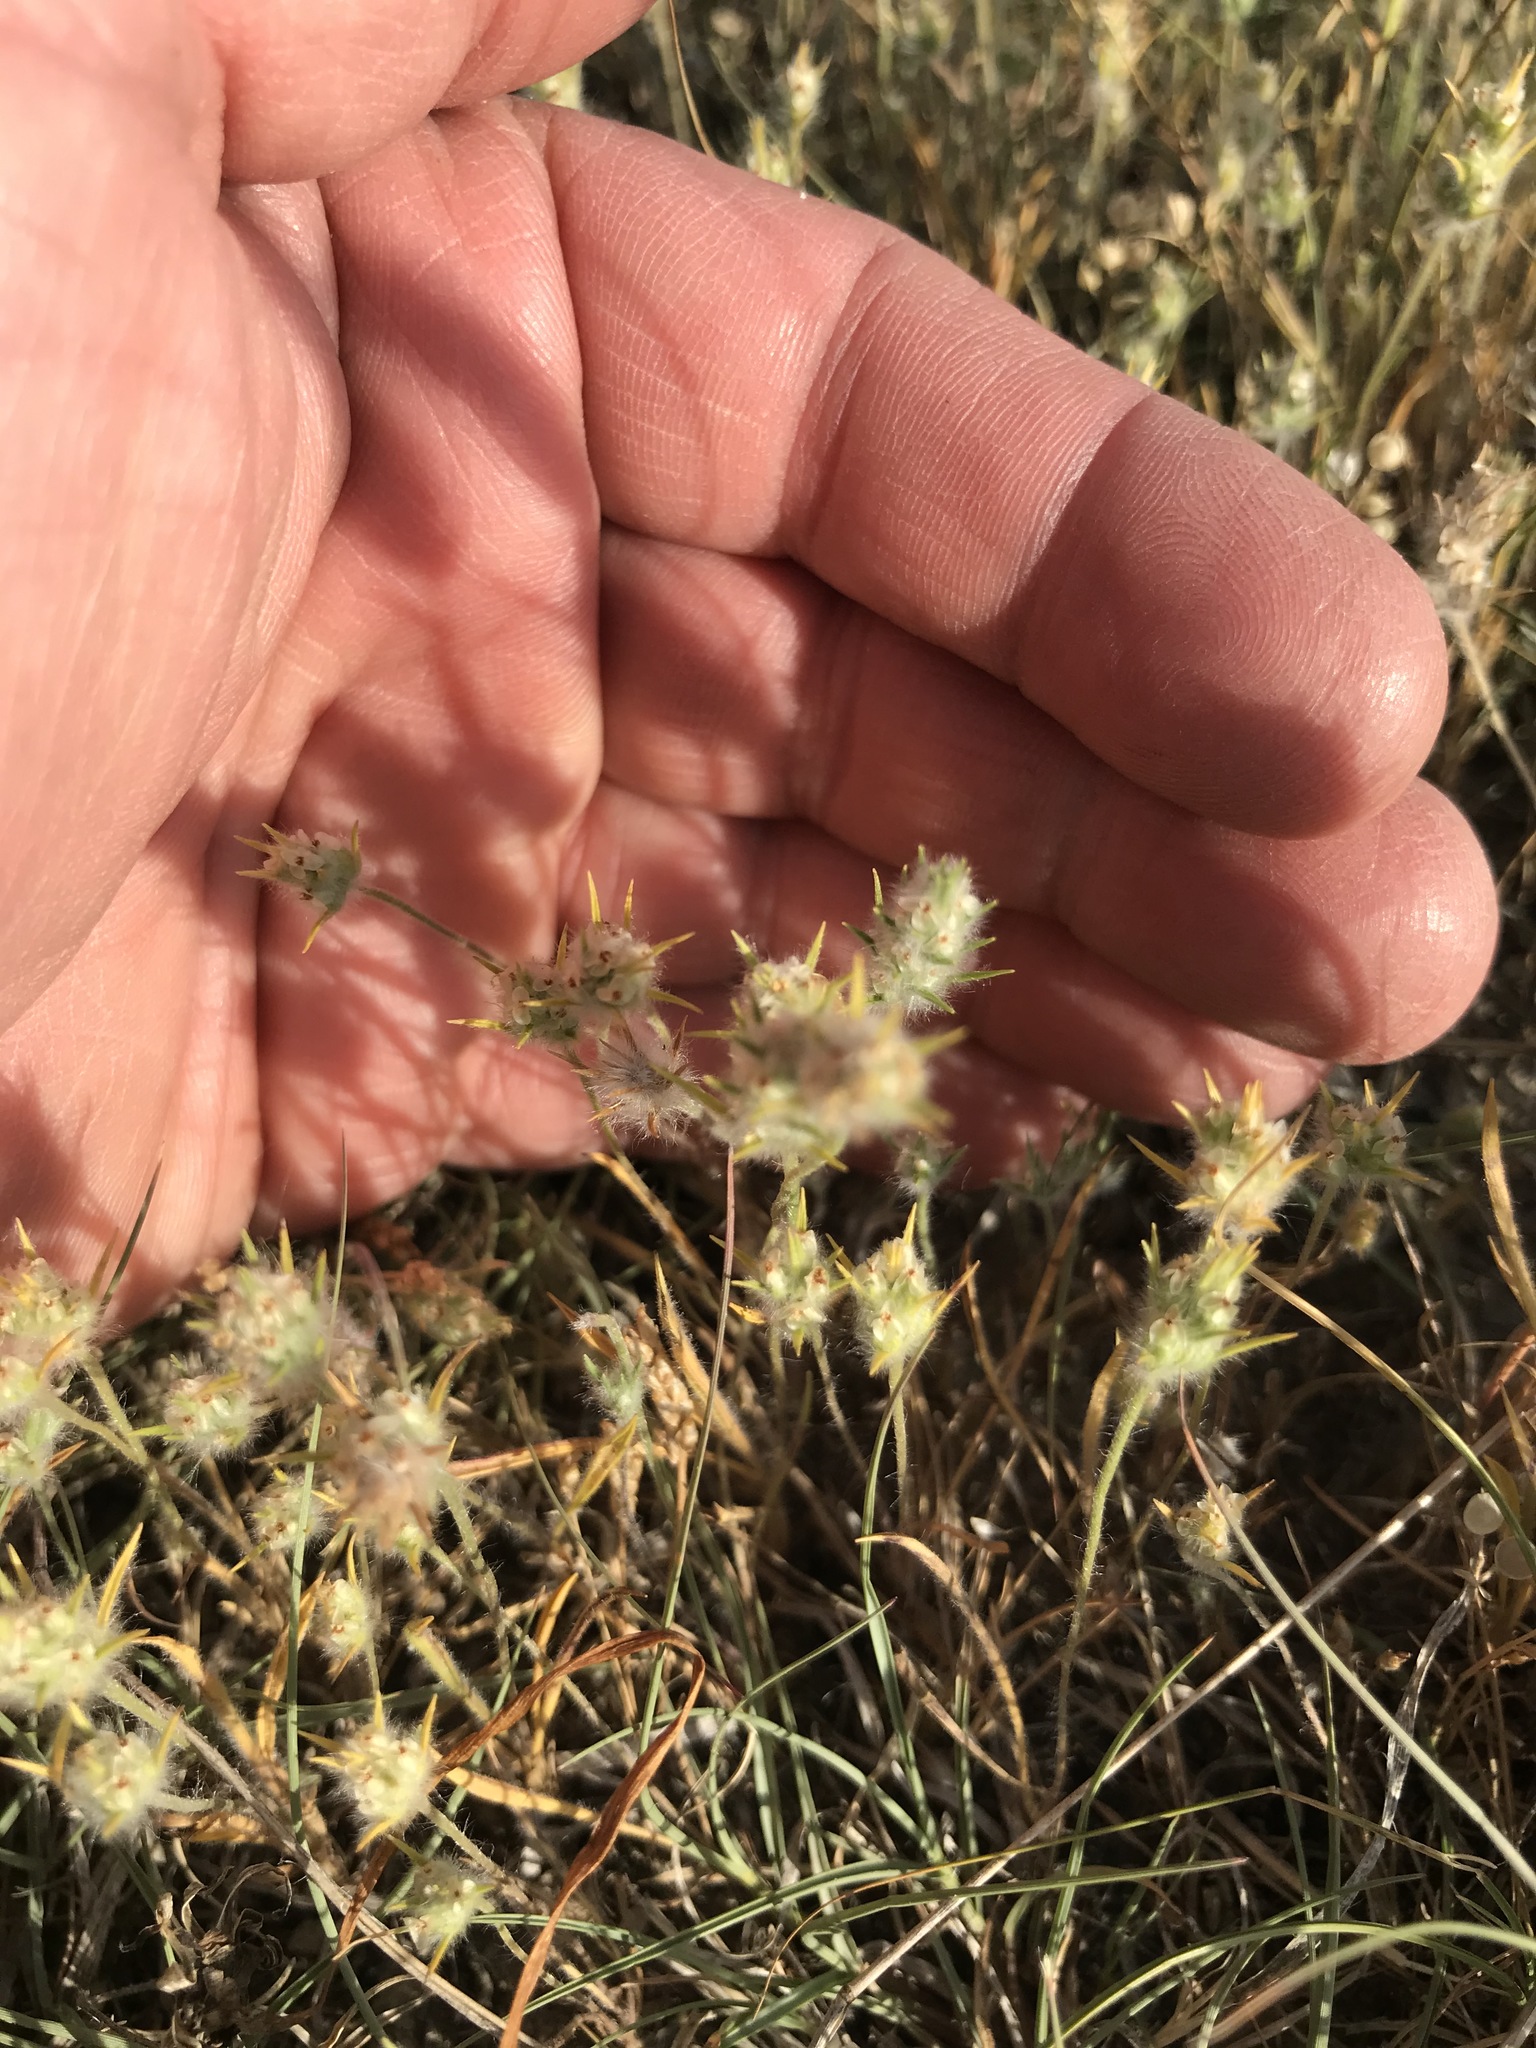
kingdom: Plantae
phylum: Tracheophyta
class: Magnoliopsida
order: Lamiales
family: Plantaginaceae
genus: Plantago
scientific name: Plantago patagonica
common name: Patagonia indian-wheat
